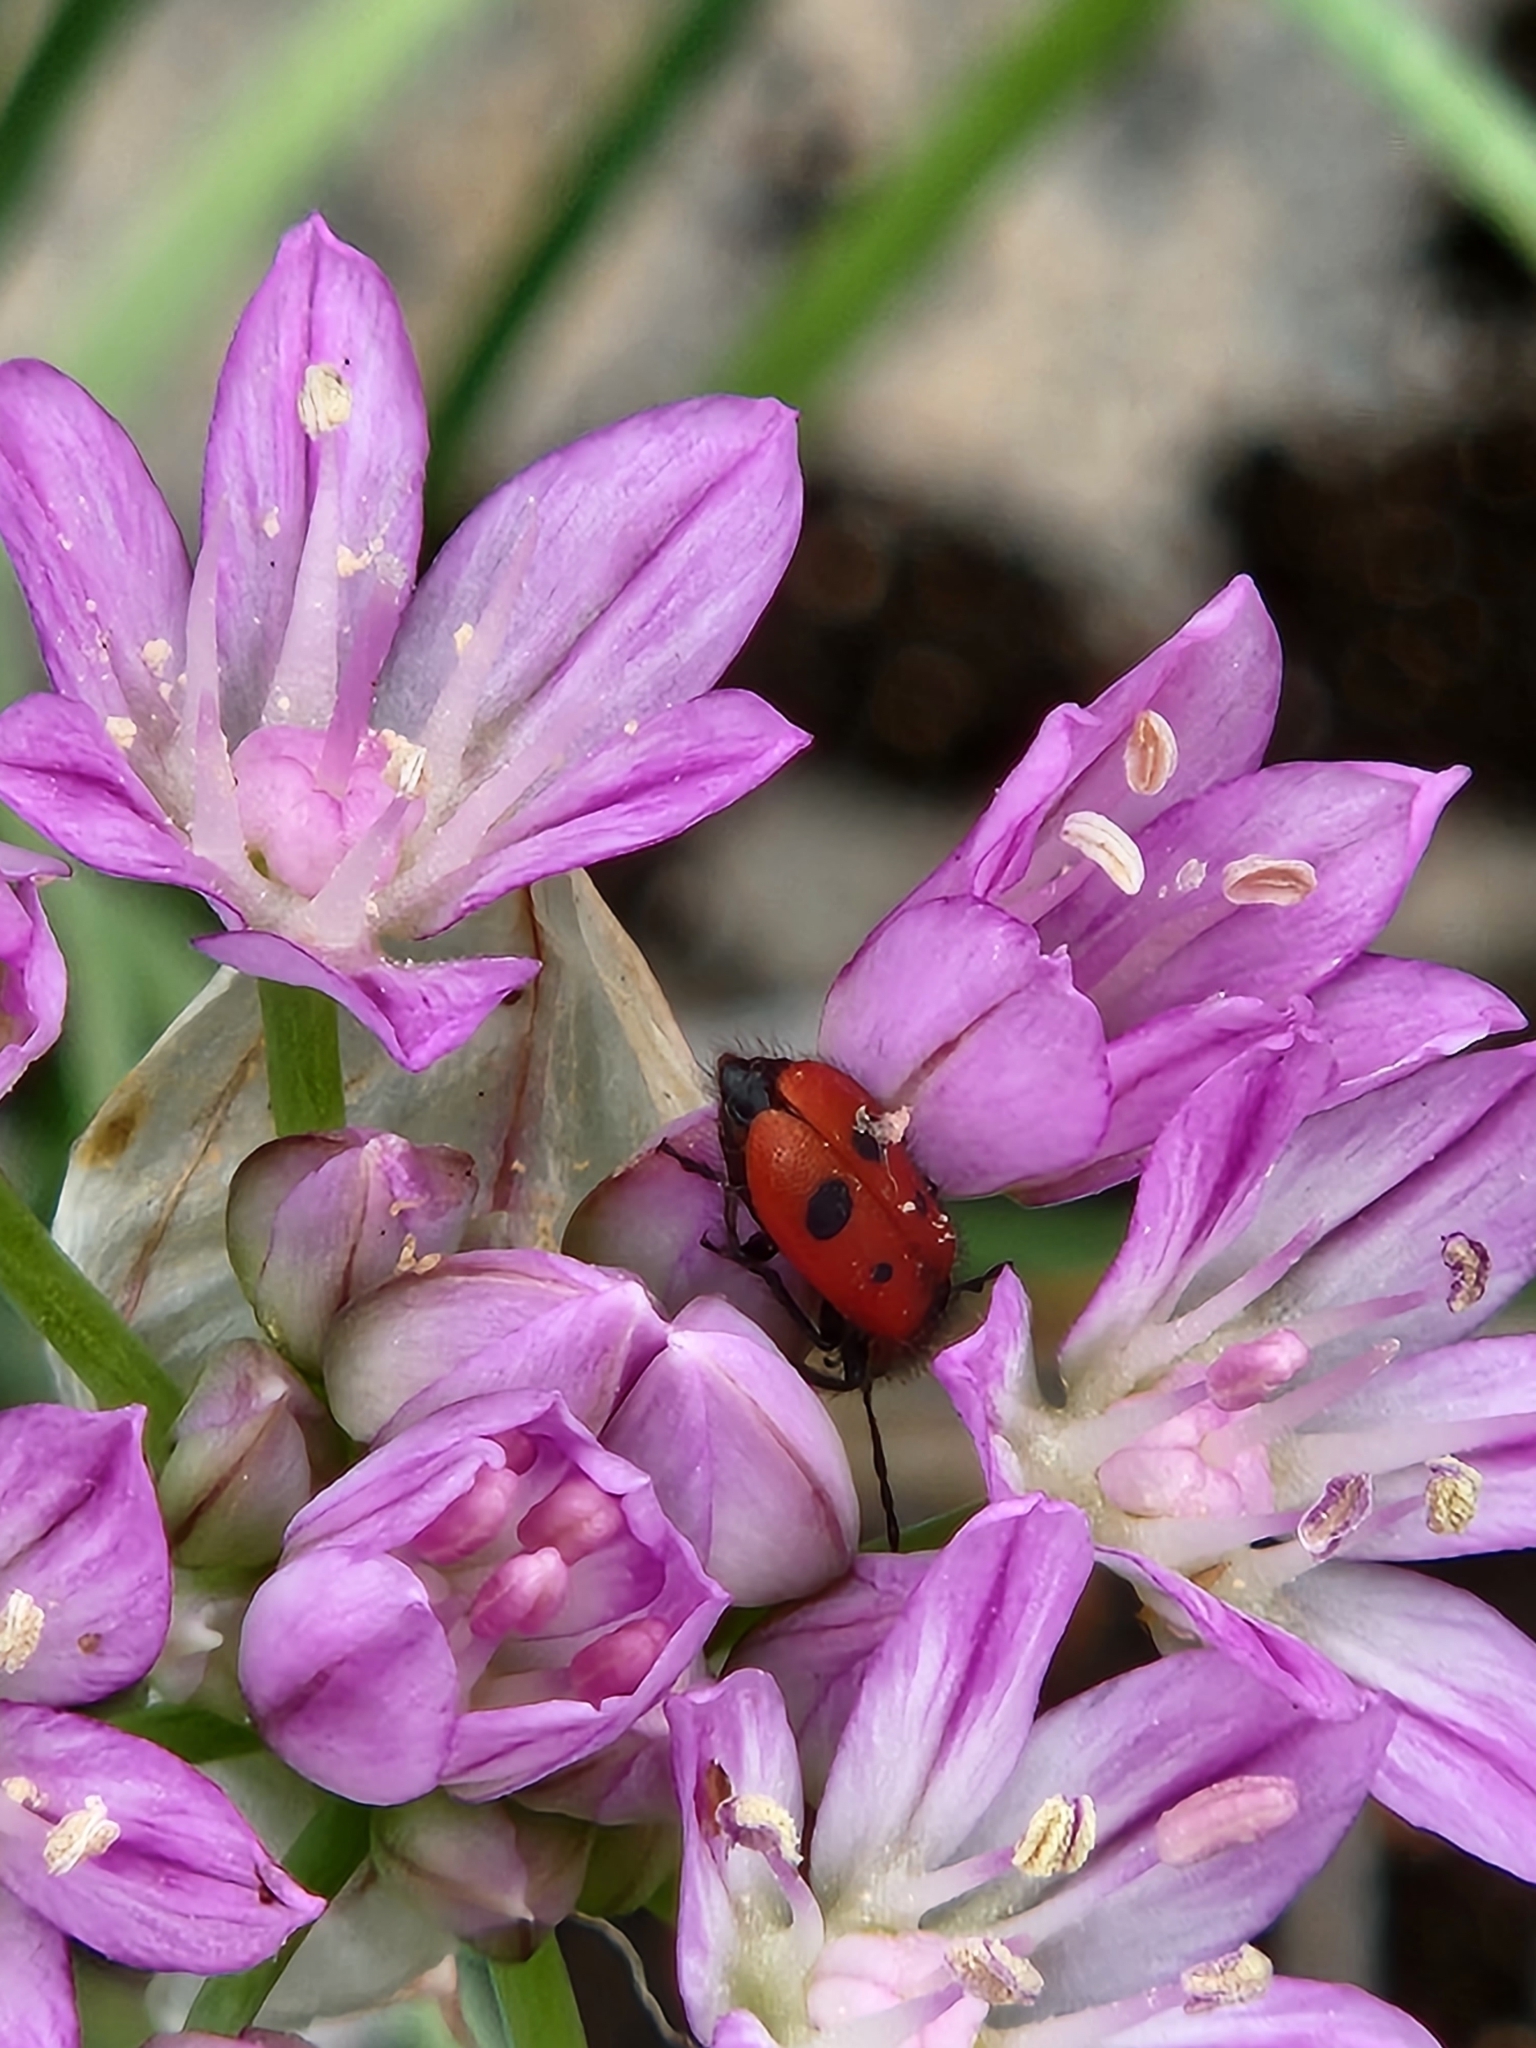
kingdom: Animalia
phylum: Arthropoda
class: Insecta
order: Coleoptera
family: Cleridae
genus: Pelonides
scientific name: Pelonides
